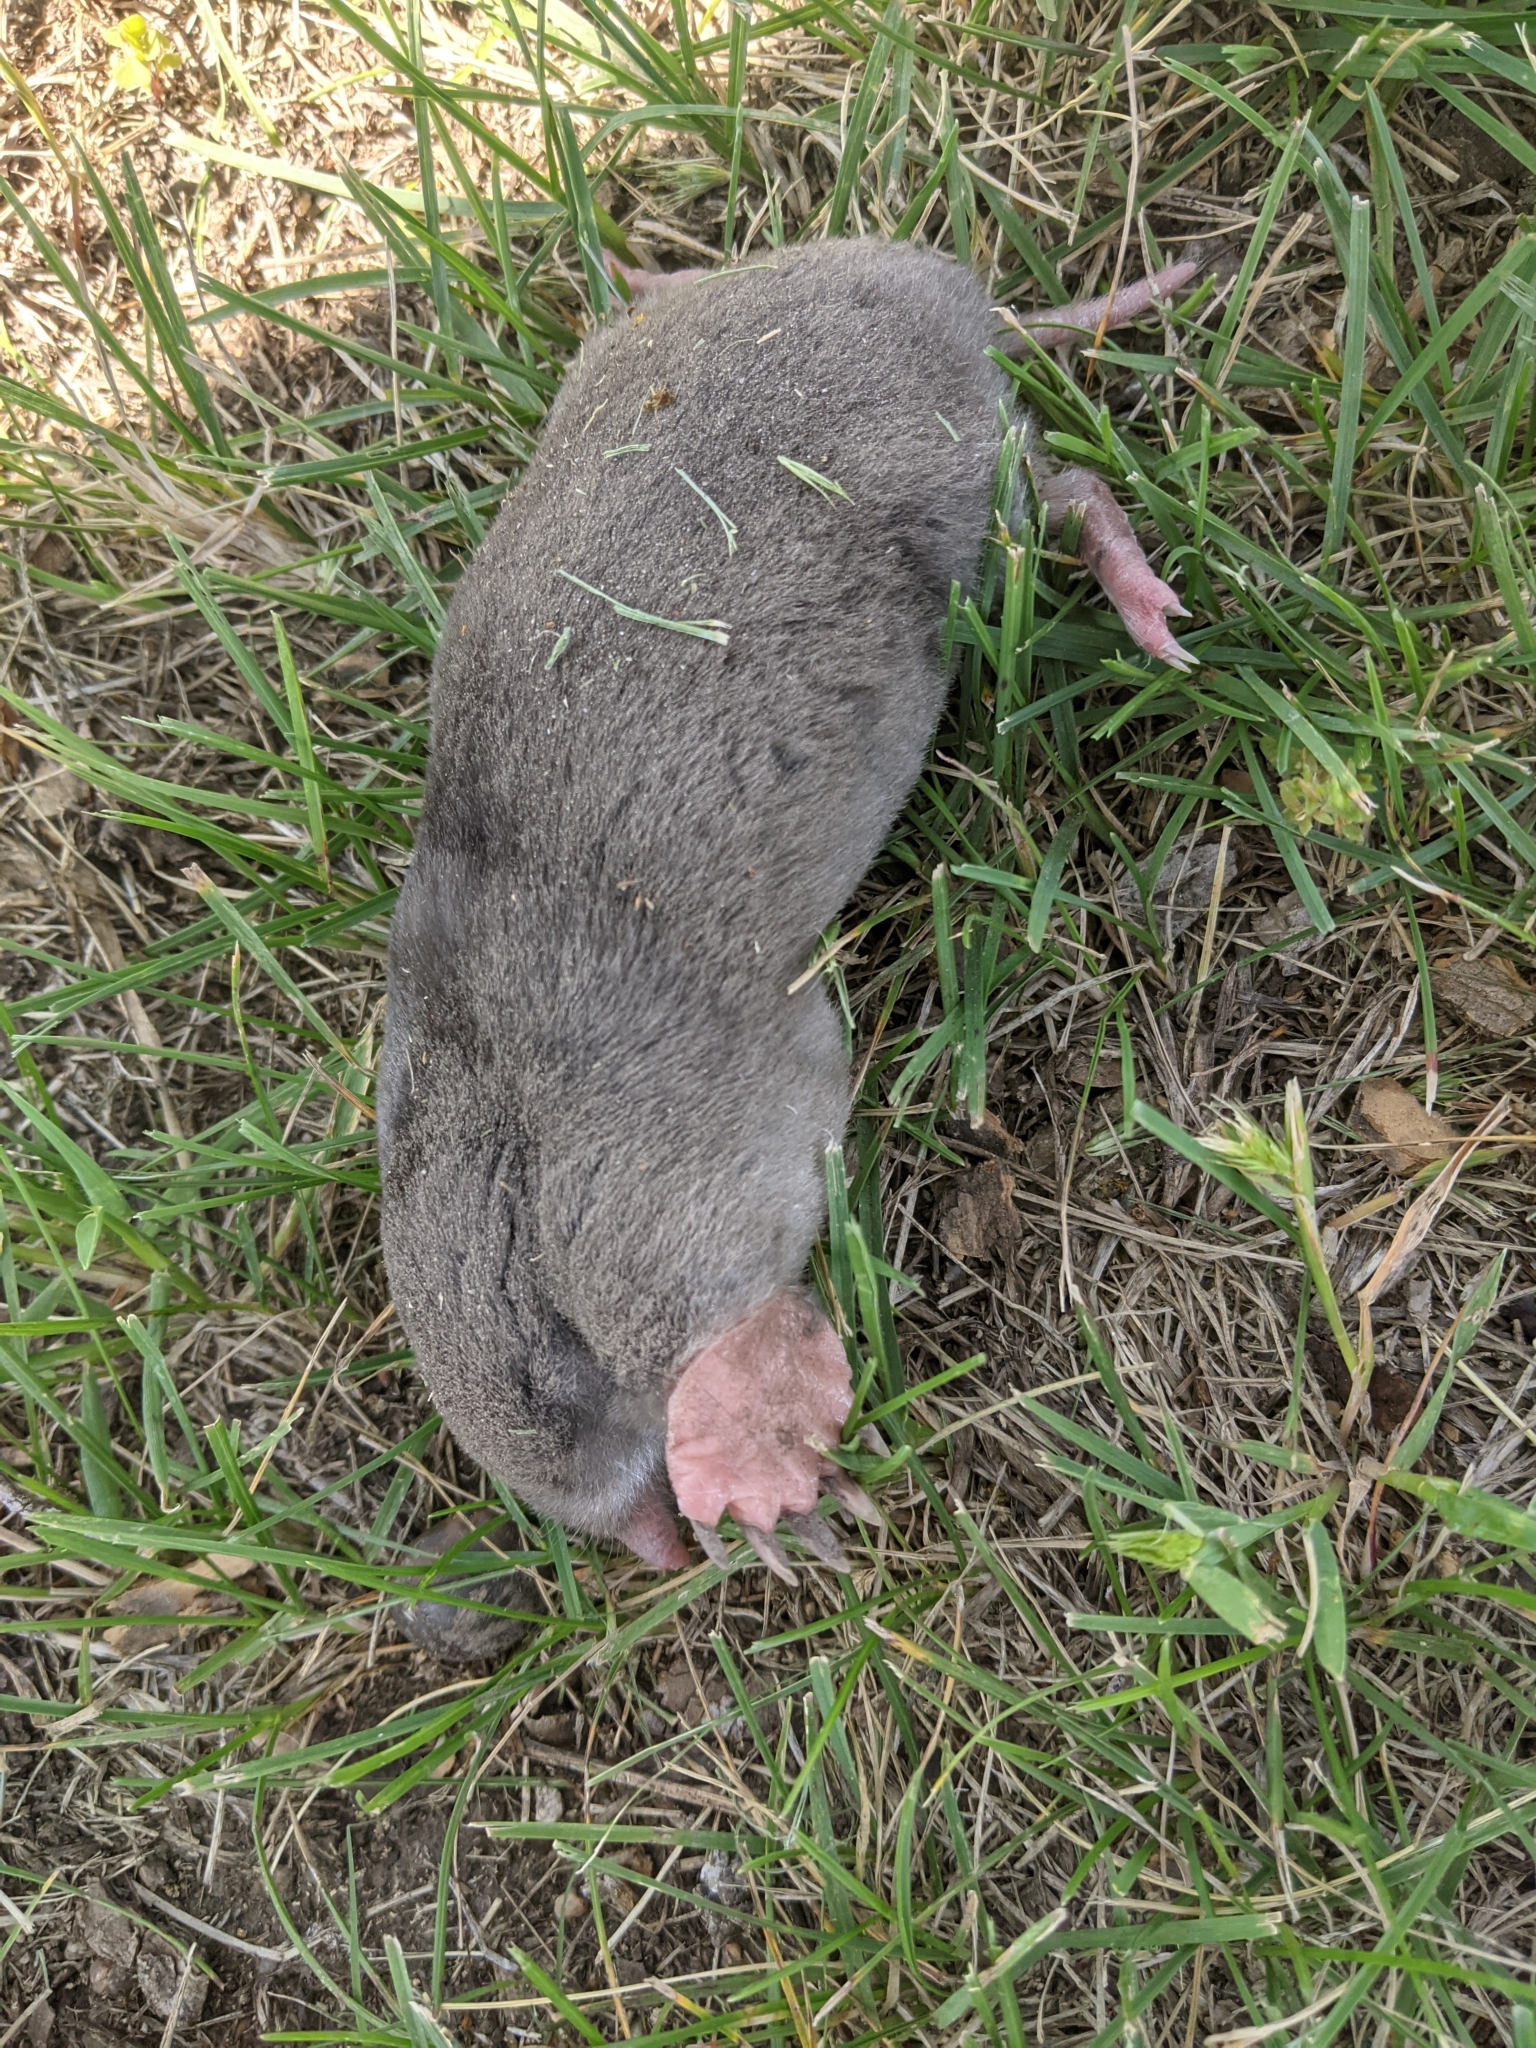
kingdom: Animalia
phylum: Chordata
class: Mammalia
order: Soricomorpha
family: Talpidae
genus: Scalopus
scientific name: Scalopus aquaticus
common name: Eastern mole
